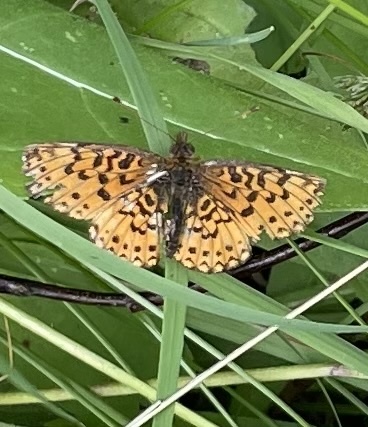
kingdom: Animalia
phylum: Arthropoda
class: Insecta
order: Lepidoptera
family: Nymphalidae
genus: Boloria
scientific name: Boloria
